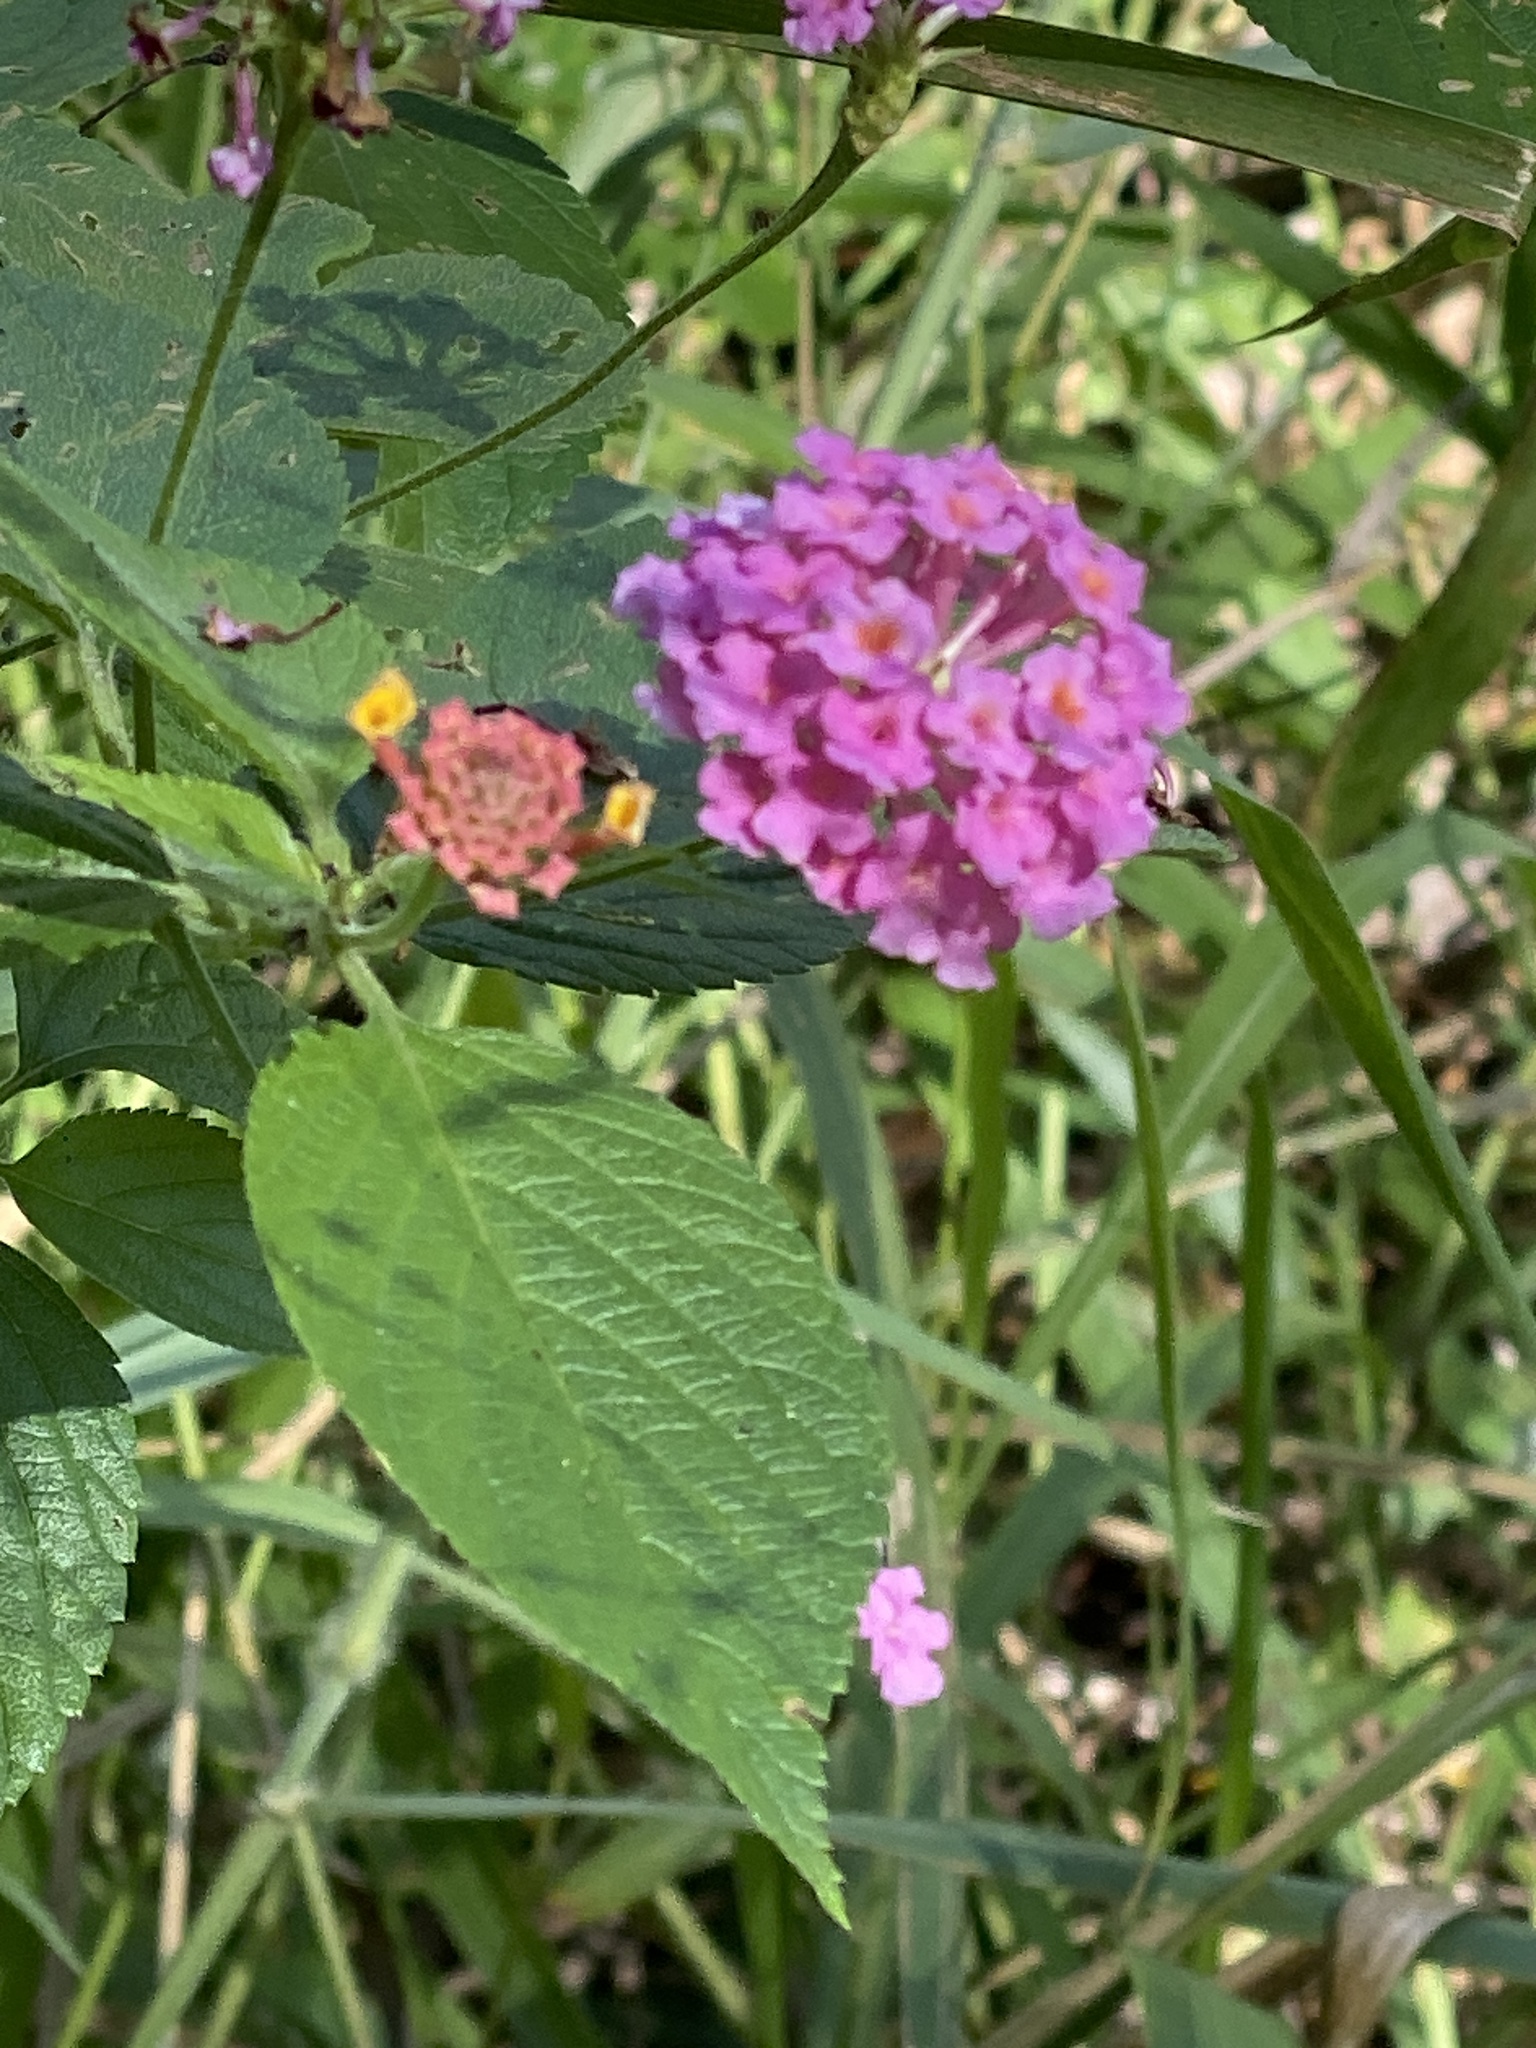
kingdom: Plantae
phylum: Tracheophyta
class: Magnoliopsida
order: Lamiales
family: Verbenaceae
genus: Lantana
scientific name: Lantana camara
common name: Lantana
